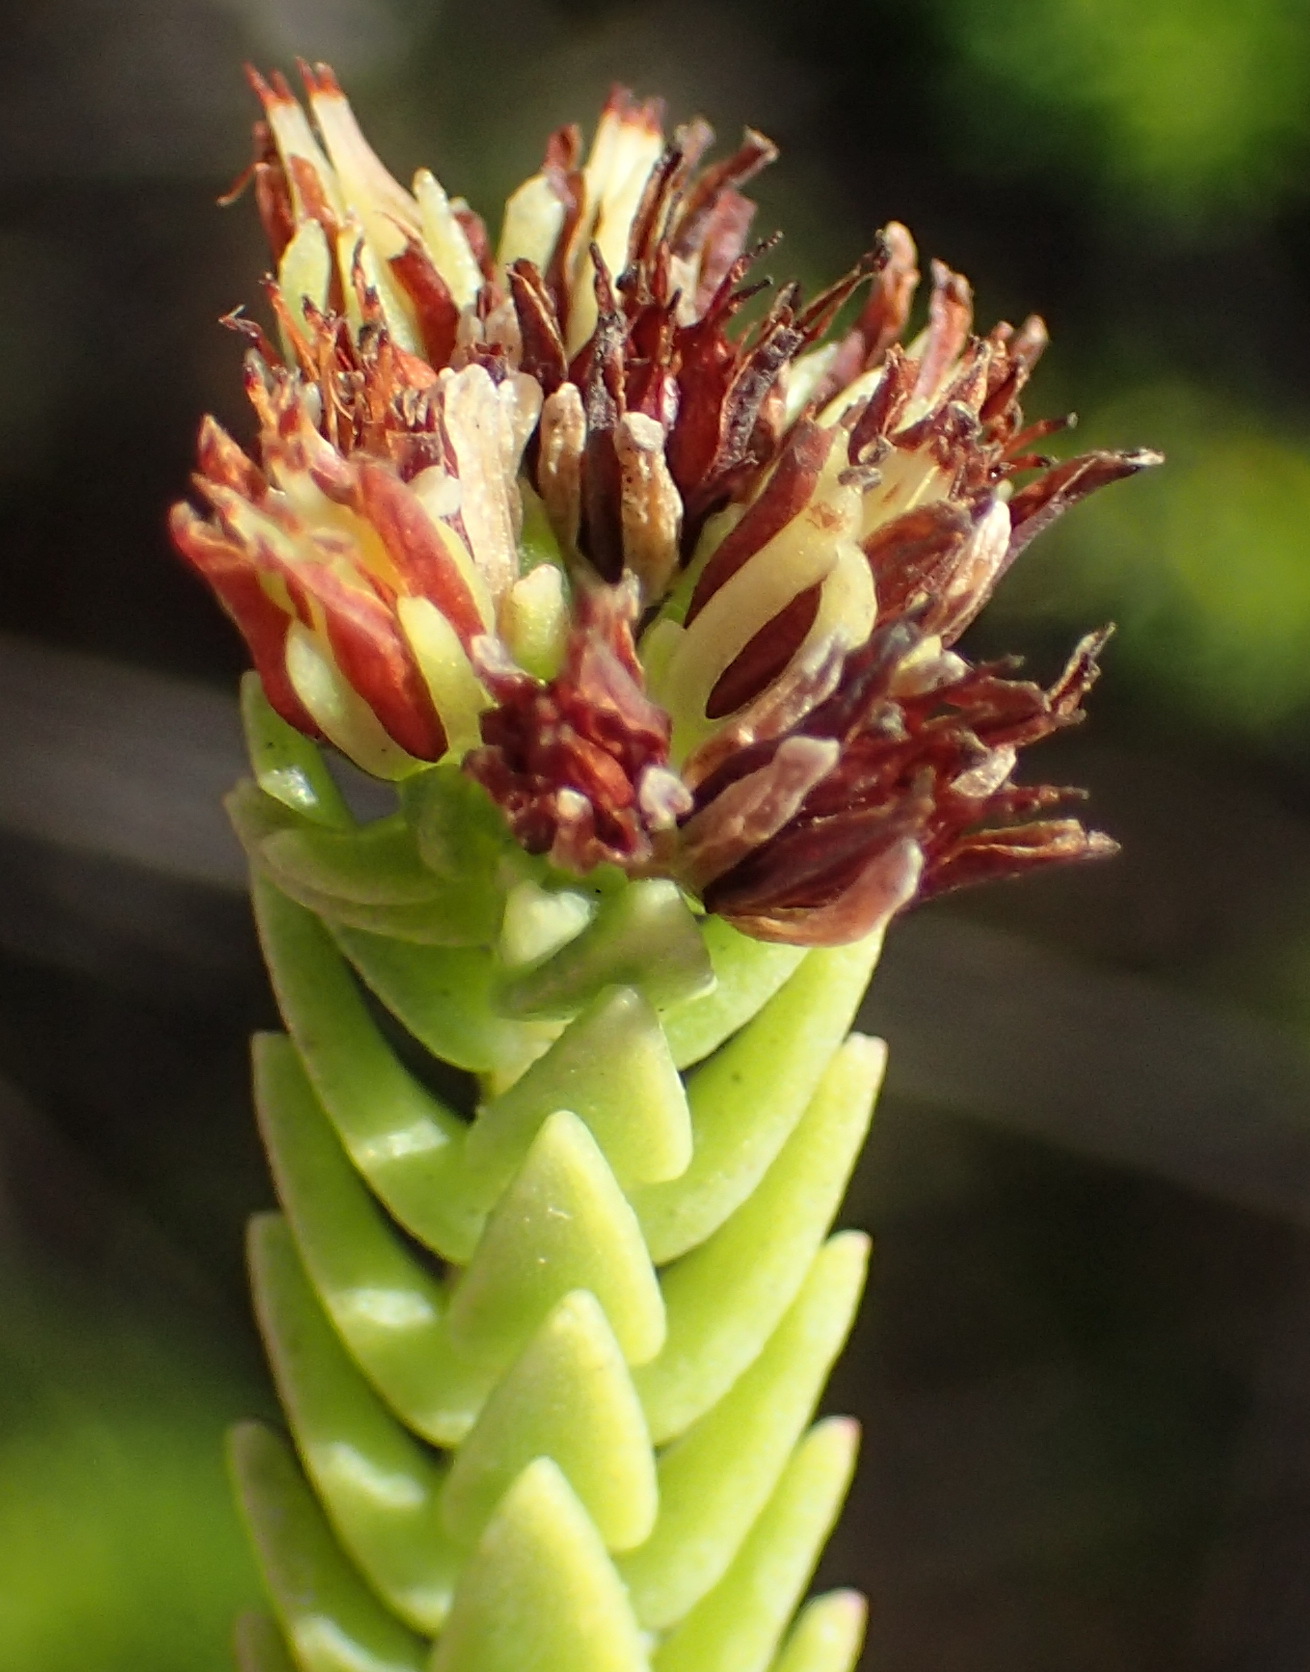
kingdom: Plantae
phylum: Tracheophyta
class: Magnoliopsida
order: Saxifragales
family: Crassulaceae
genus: Crassula
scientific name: Crassula ericoides
